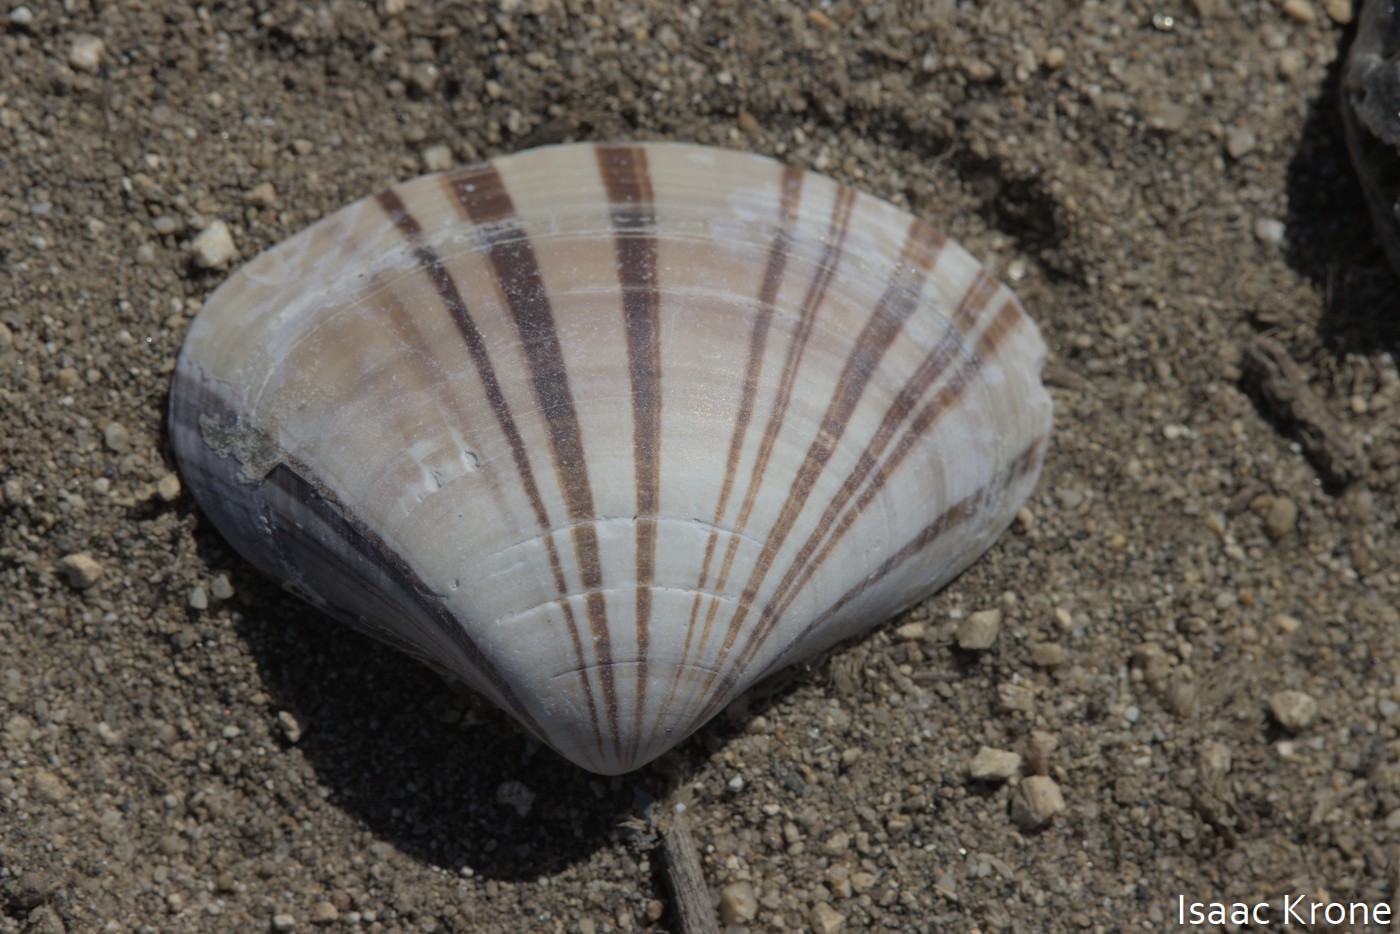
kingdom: Animalia
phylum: Mollusca
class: Bivalvia
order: Venerida
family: Veneridae
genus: Tivela
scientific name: Tivela stultorum
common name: Pismo clam
